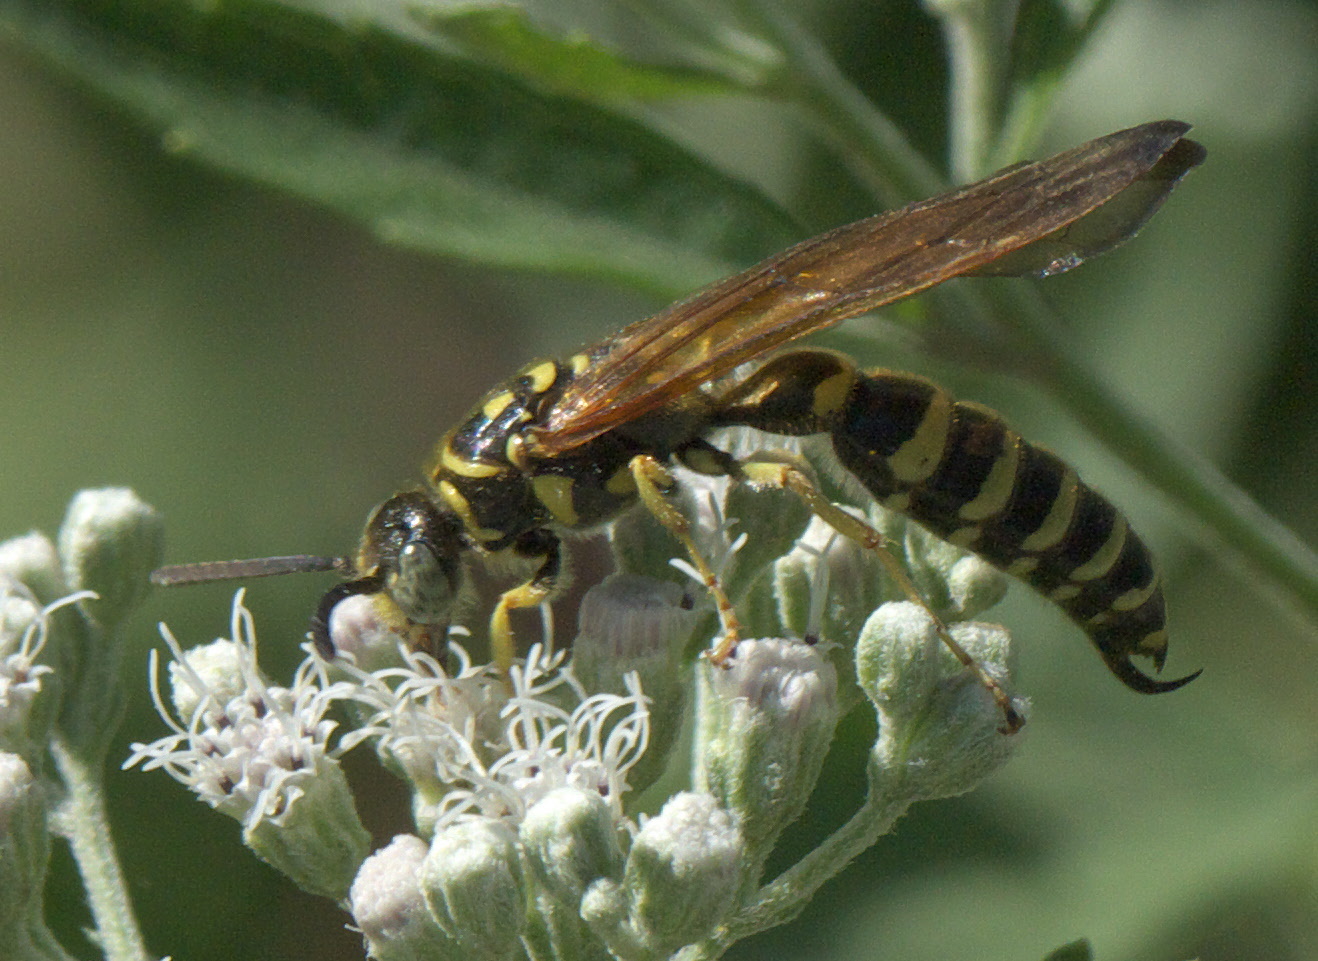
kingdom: Animalia
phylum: Arthropoda
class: Insecta
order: Hymenoptera
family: Tiphiidae
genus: Myzinum
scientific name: Myzinum quinquecinctum
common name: Five-banded thynnid wasp
